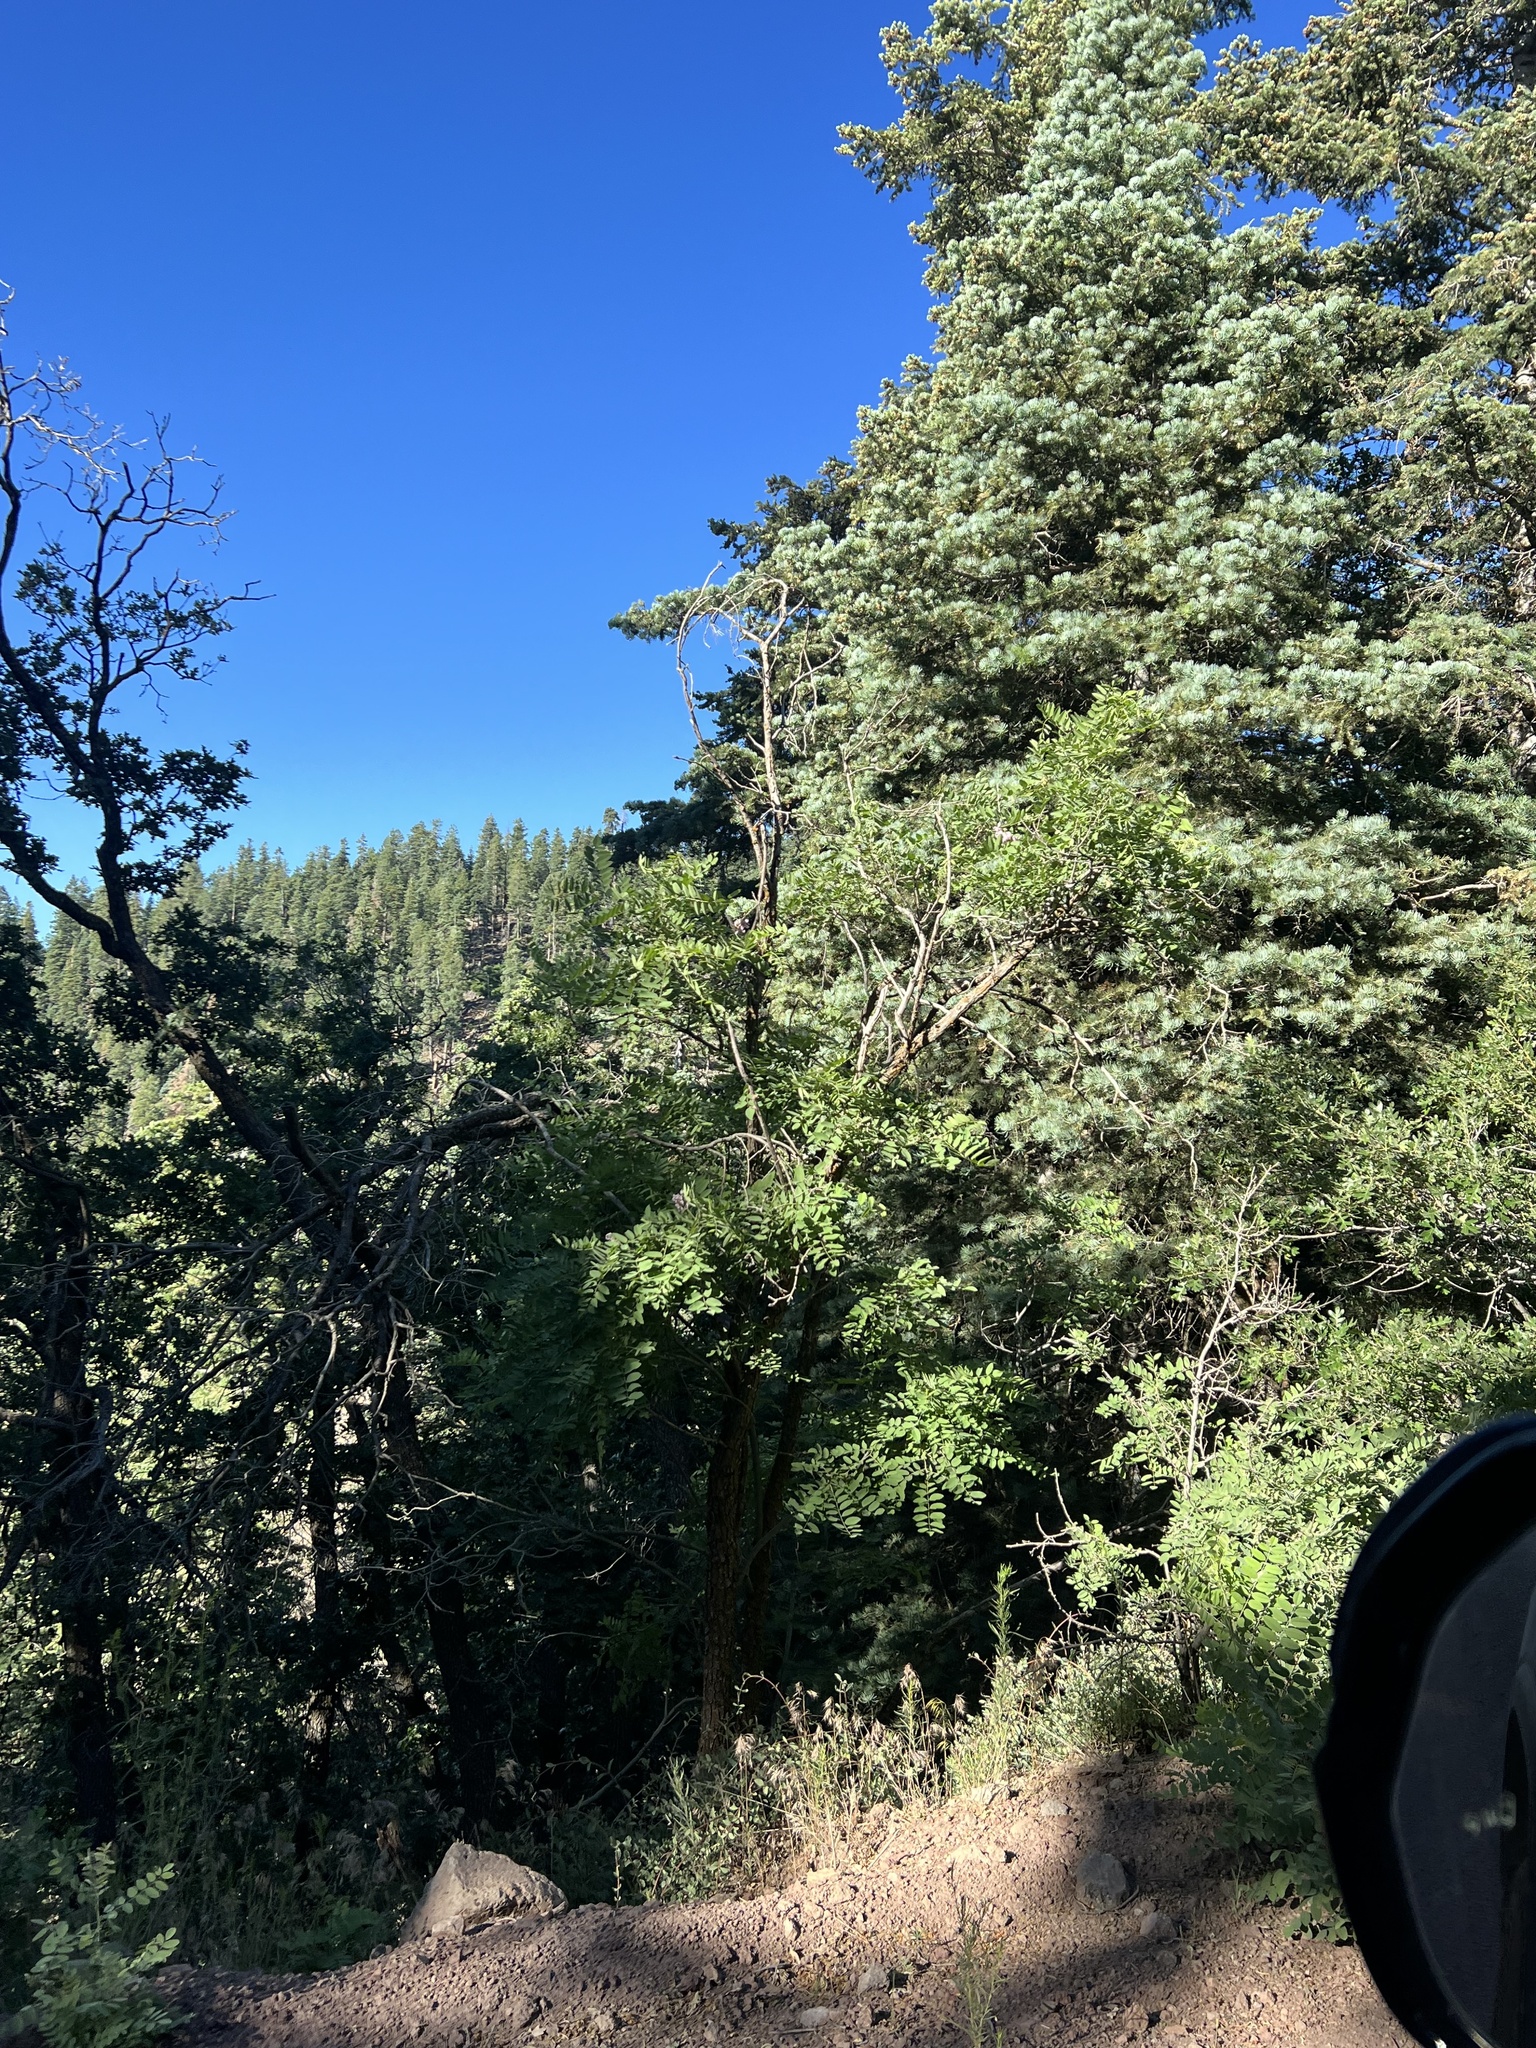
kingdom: Plantae
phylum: Tracheophyta
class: Magnoliopsida
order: Fabales
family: Fabaceae
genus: Robinia
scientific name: Robinia neomexicana
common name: New mexico locust
